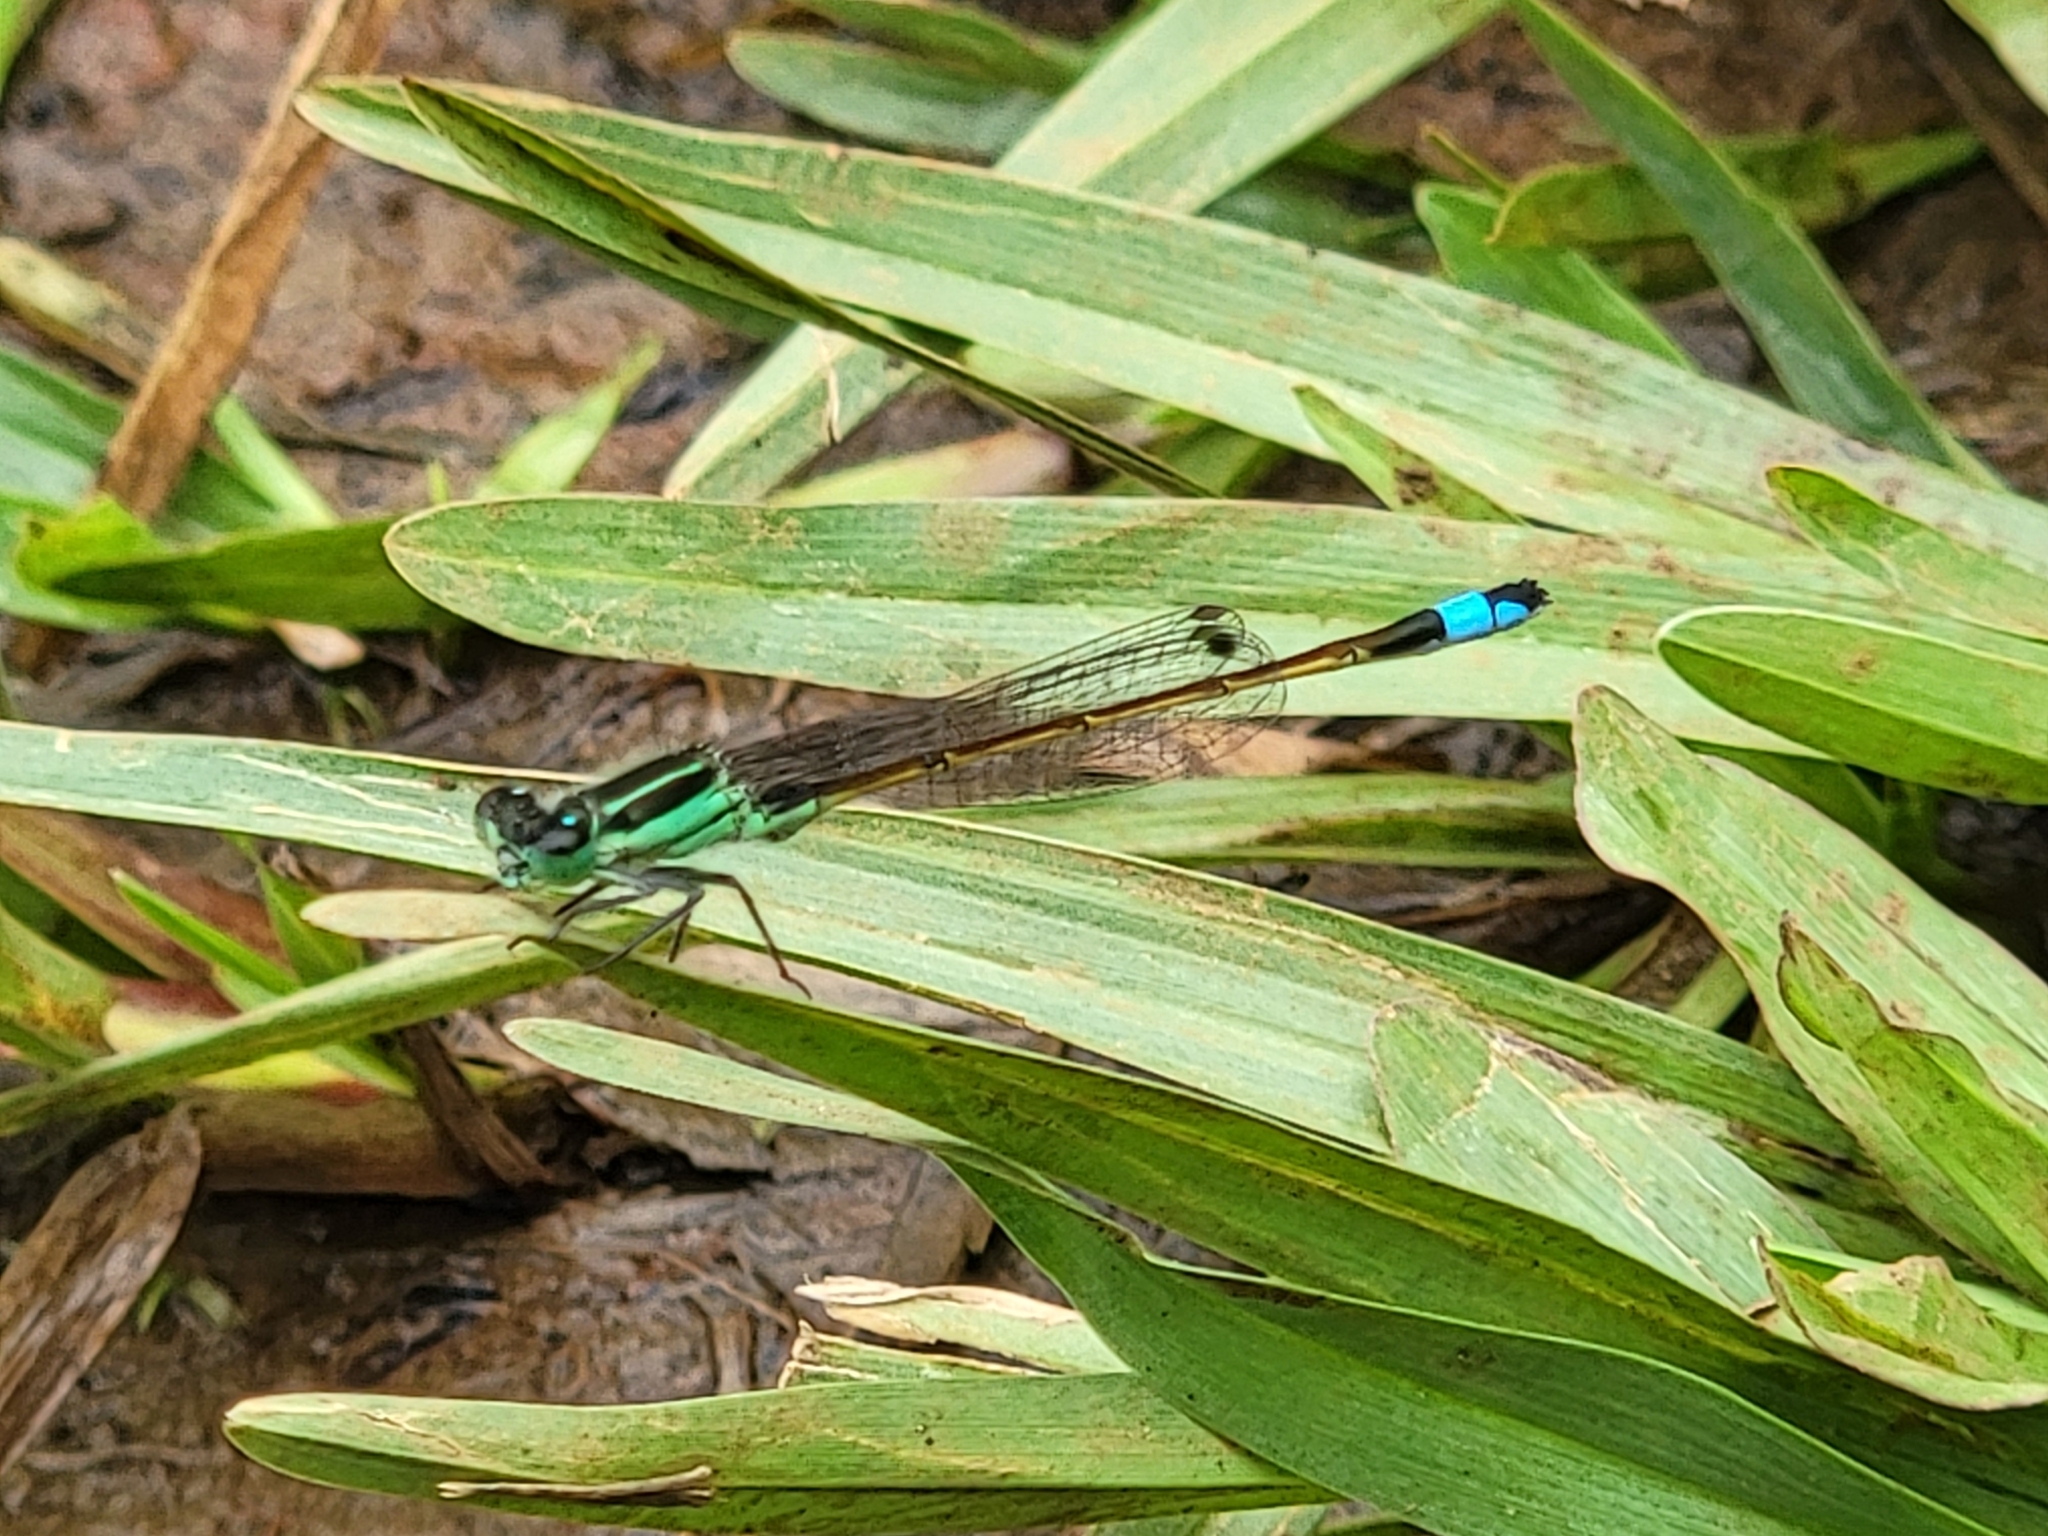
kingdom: Animalia
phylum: Arthropoda
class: Insecta
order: Odonata
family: Coenagrionidae
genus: Ischnura
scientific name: Ischnura ramburii
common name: Rambur's forktail
